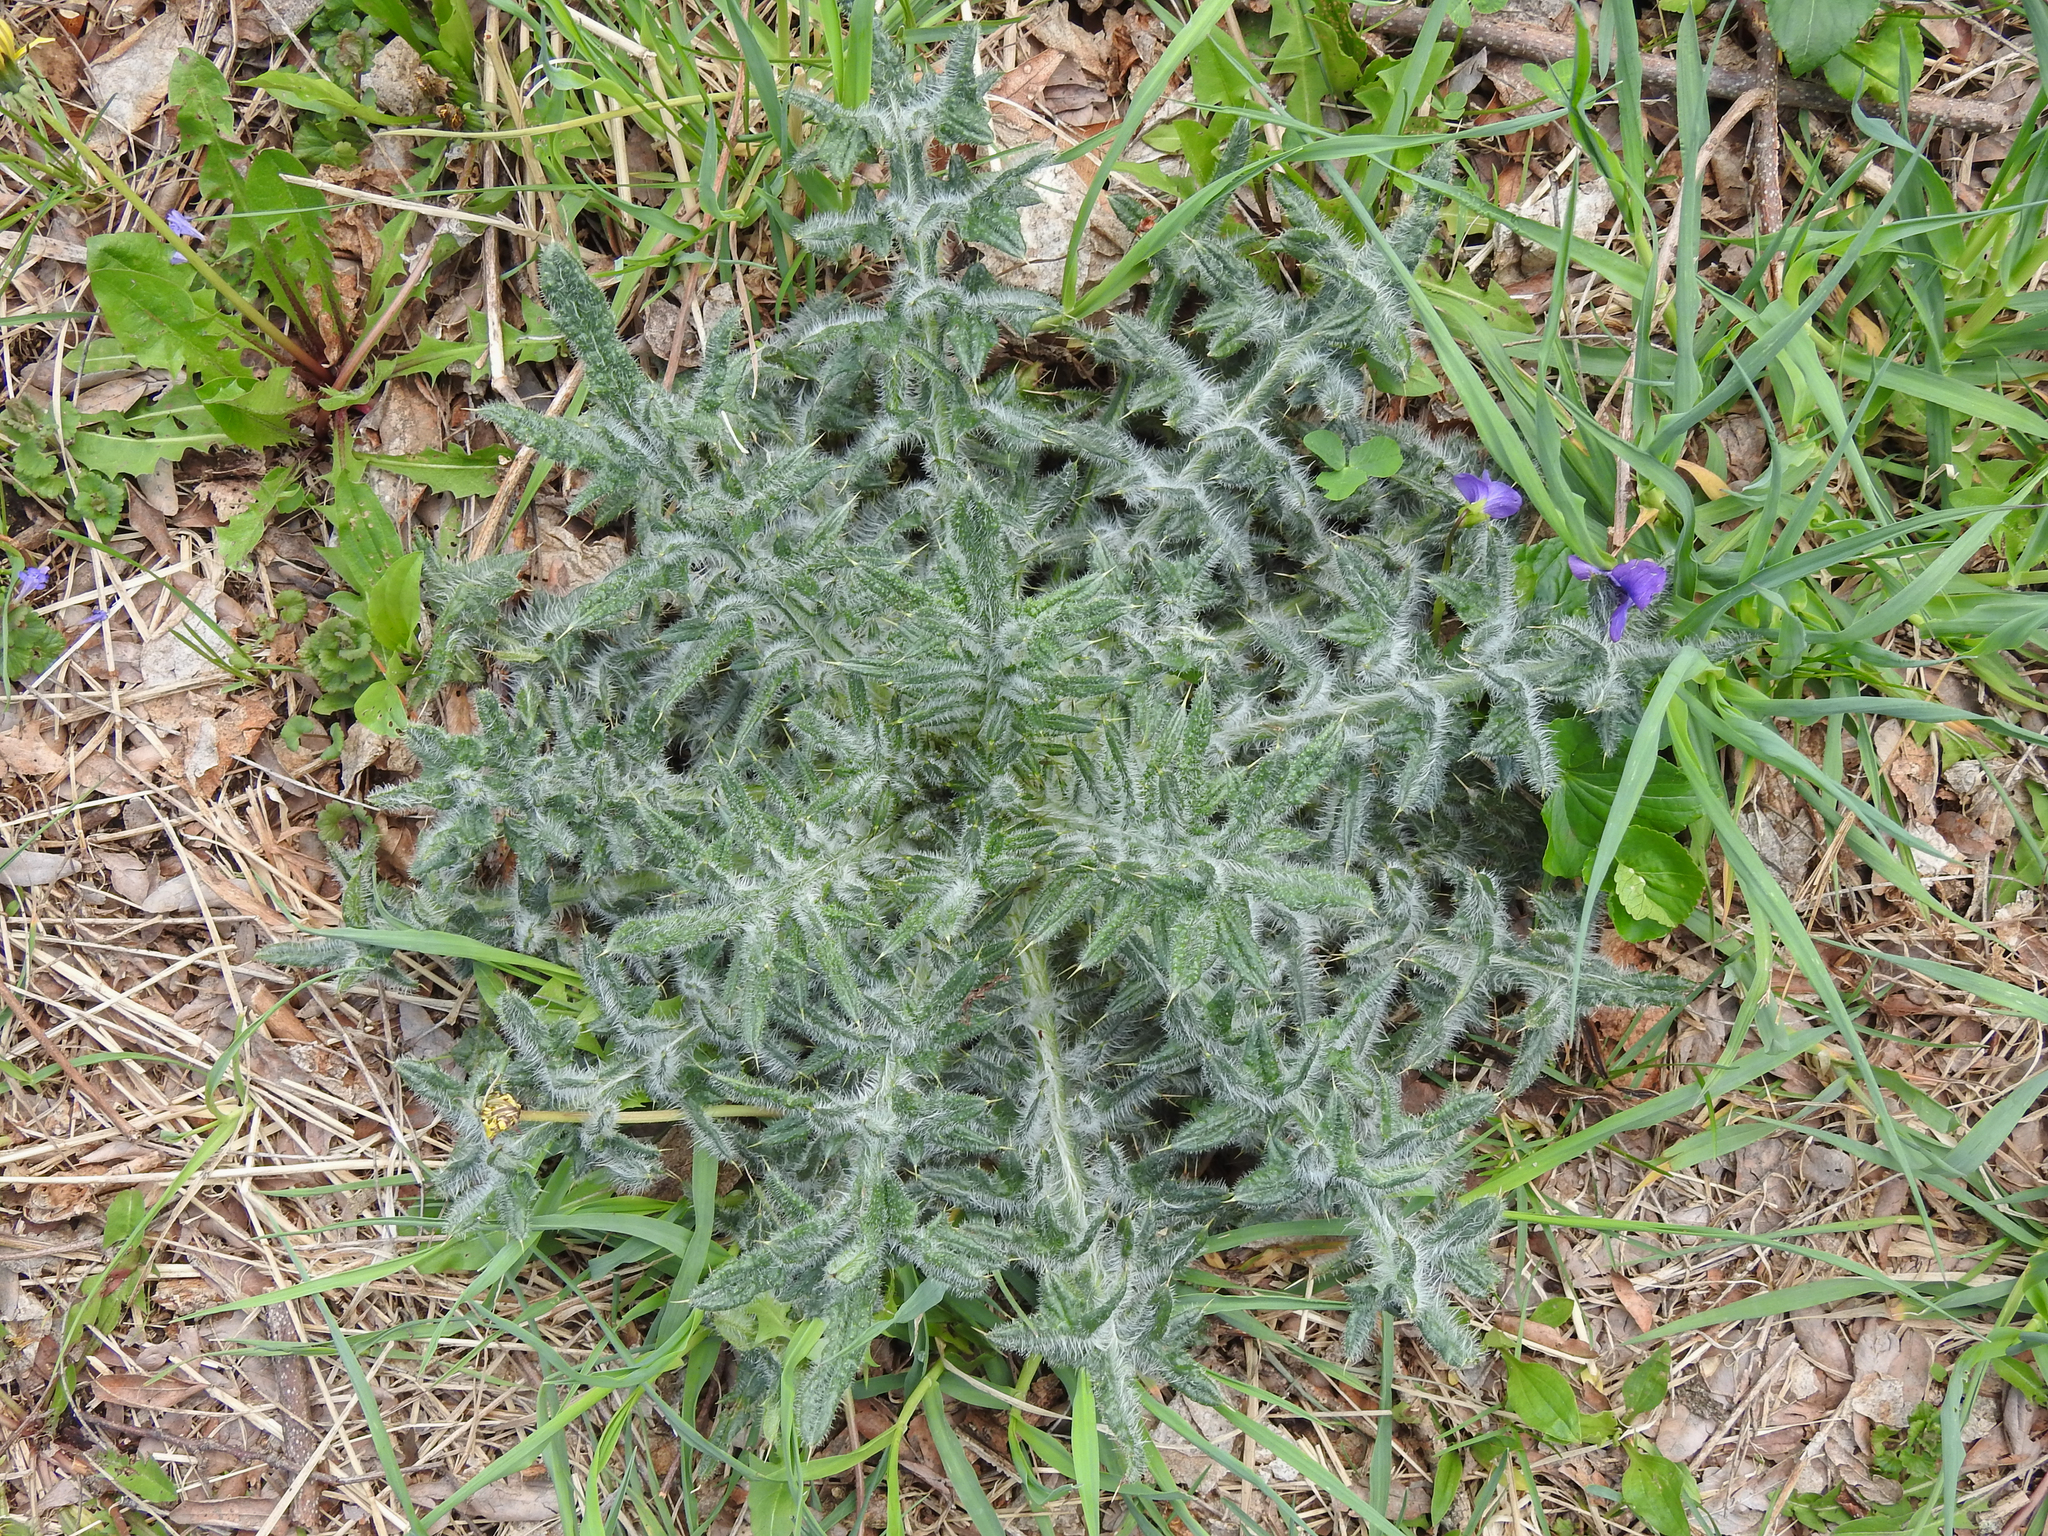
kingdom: Plantae
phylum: Tracheophyta
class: Magnoliopsida
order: Asterales
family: Asteraceae
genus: Cirsium
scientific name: Cirsium vulgare
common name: Bull thistle
